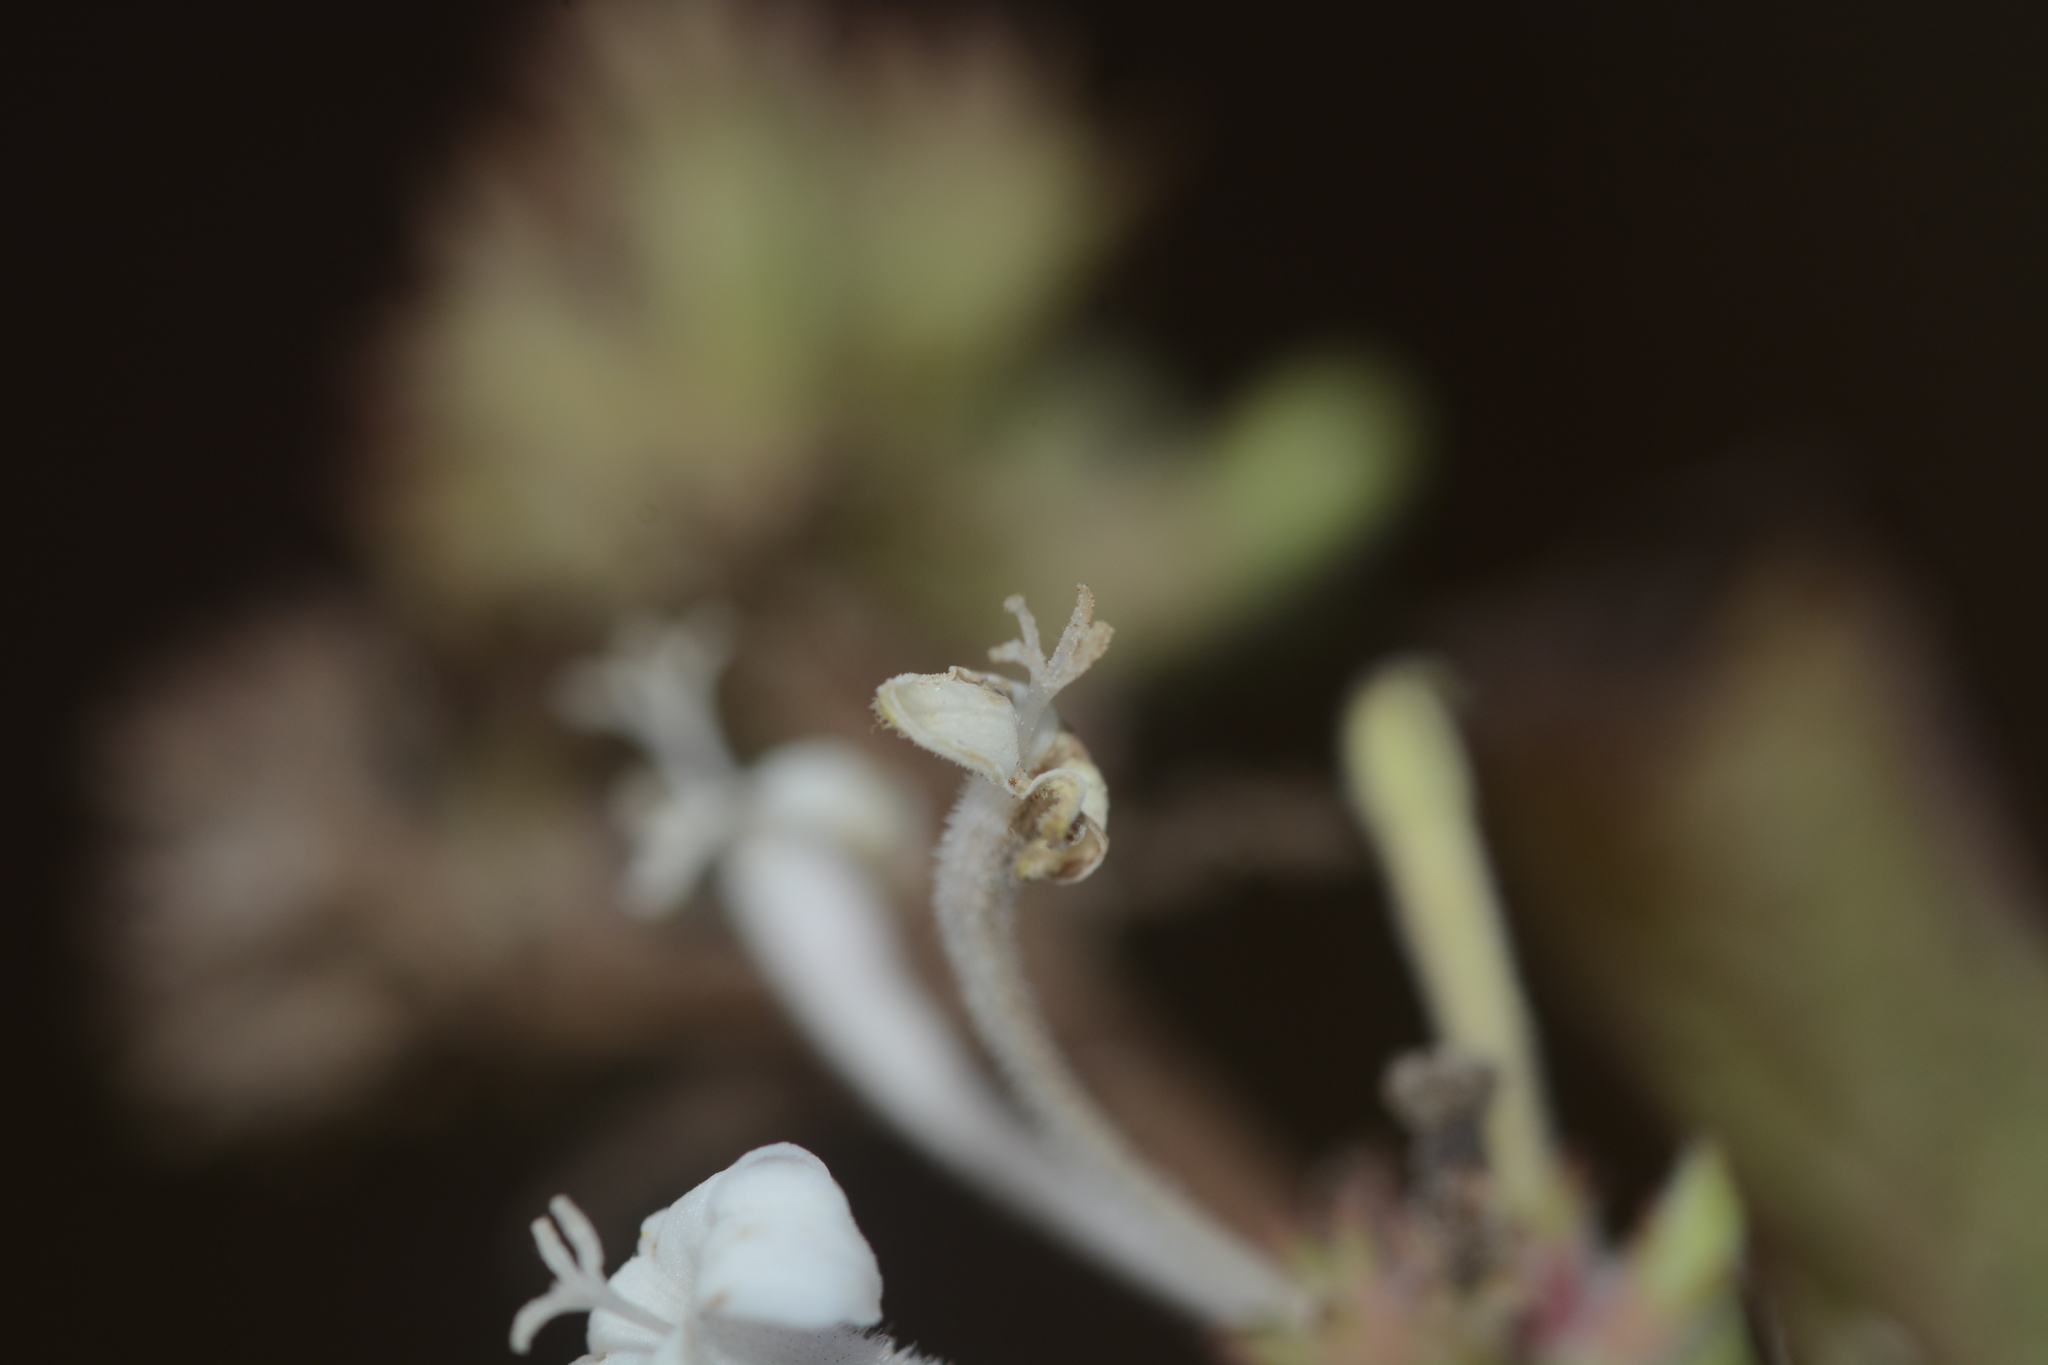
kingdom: Plantae
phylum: Tracheophyta
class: Magnoliopsida
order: Gentianales
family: Rubiaceae
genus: Spermadictyon
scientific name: Spermadictyon suaveolens
